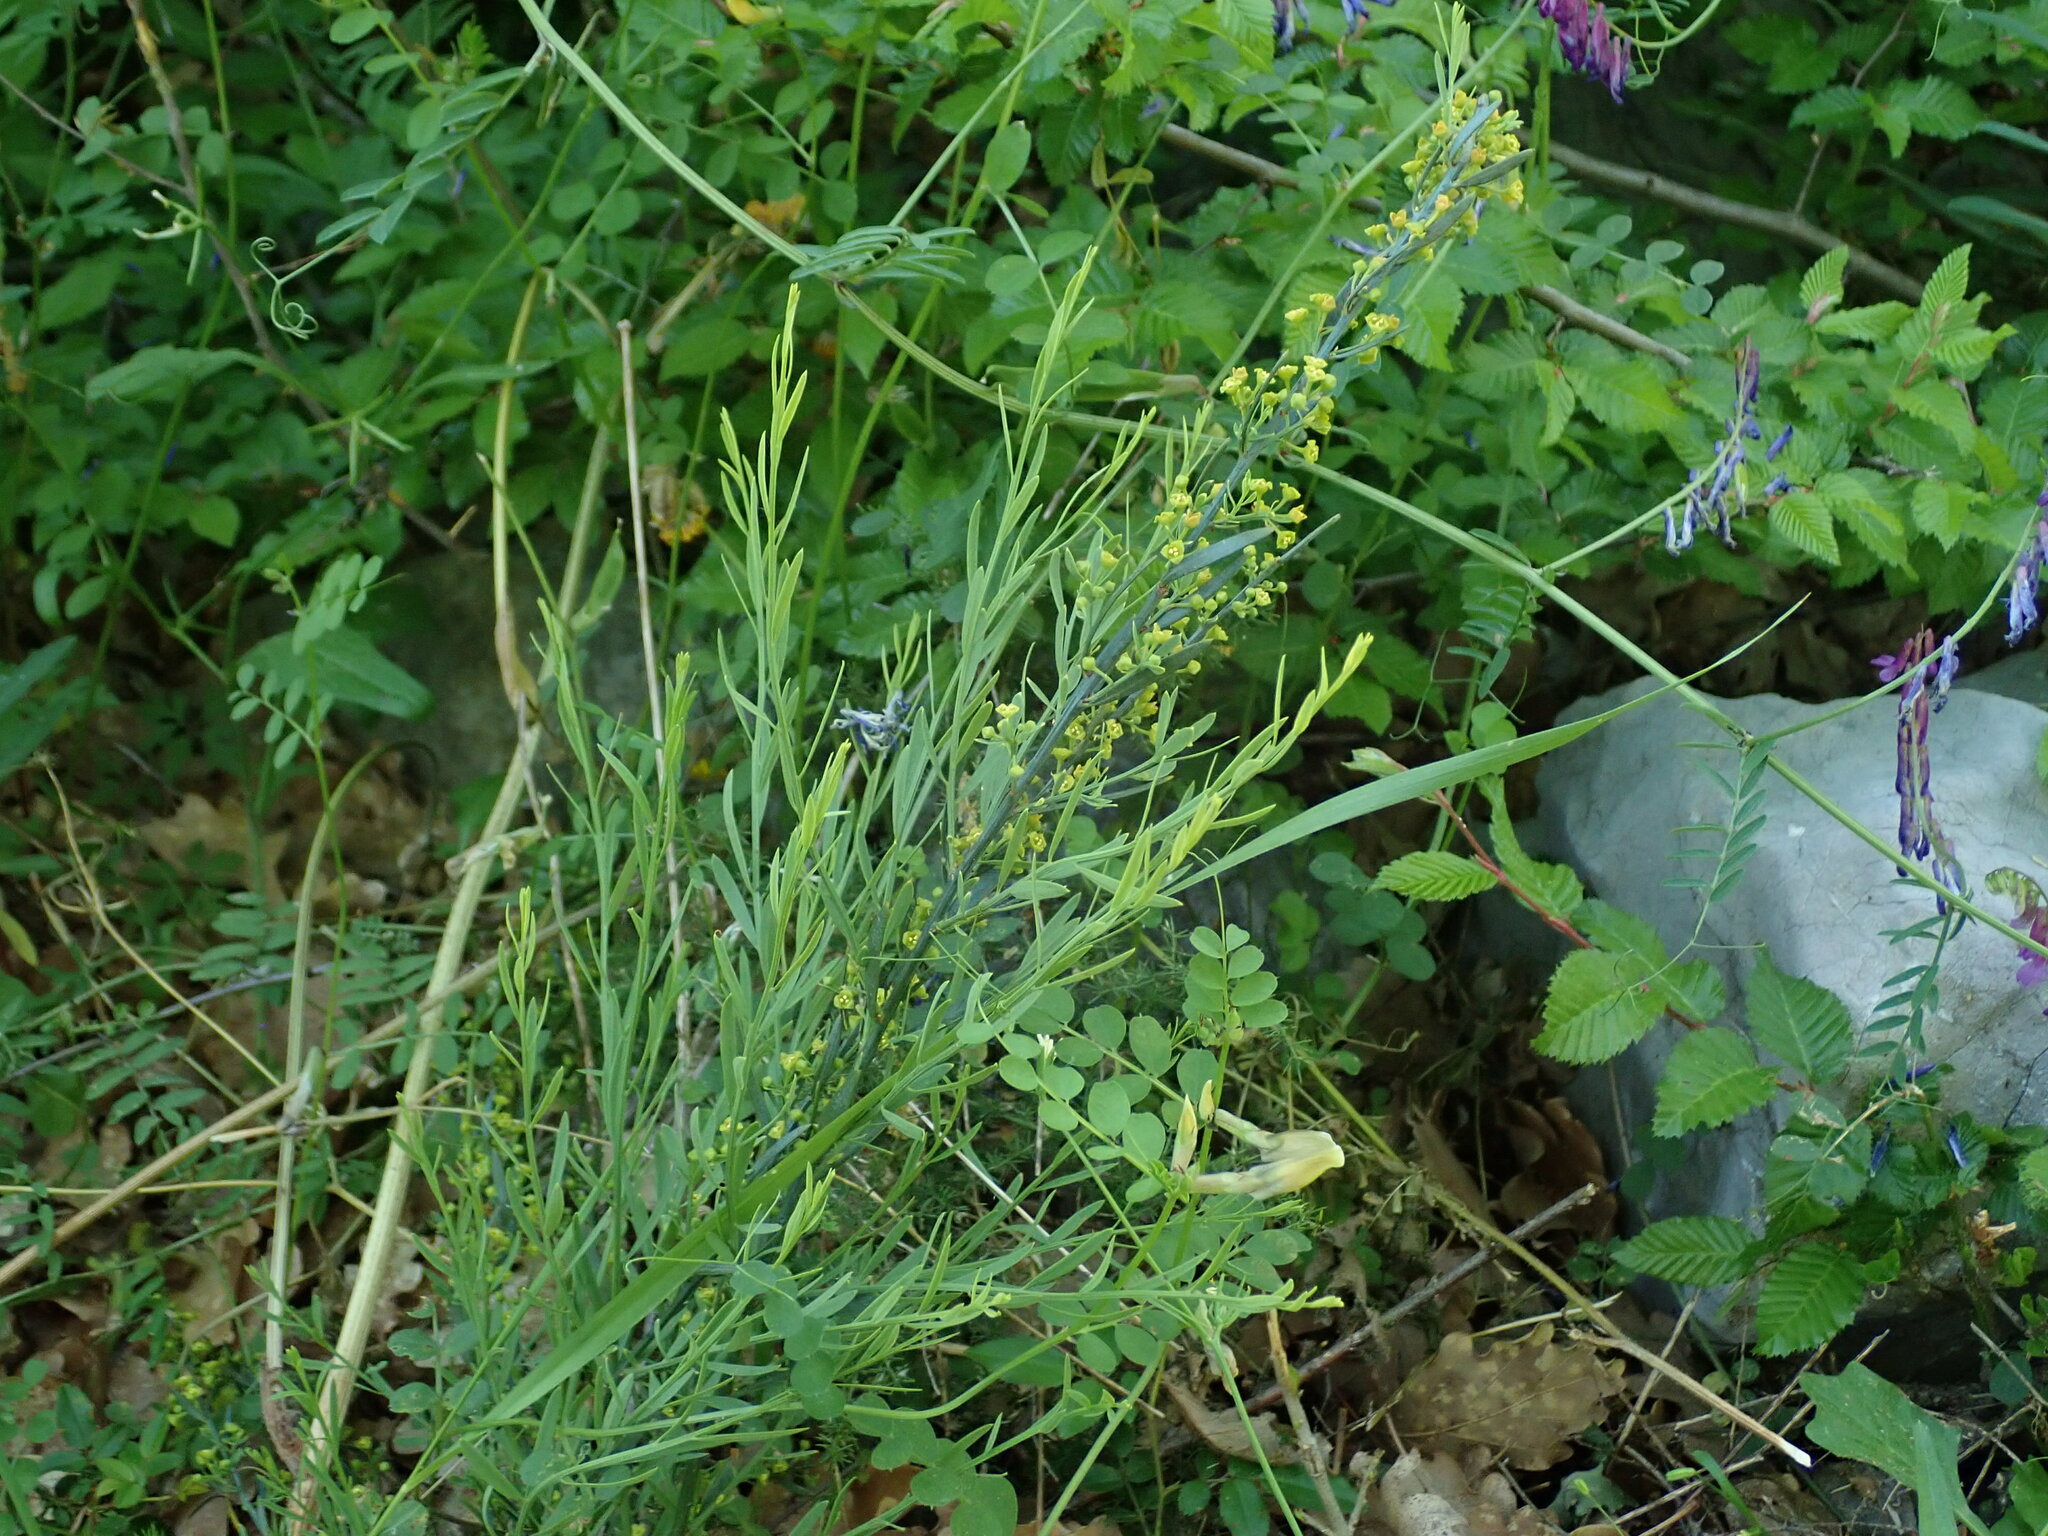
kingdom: Plantae
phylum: Tracheophyta
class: Magnoliopsida
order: Santalales
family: Santalaceae
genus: Osyris
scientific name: Osyris alba
